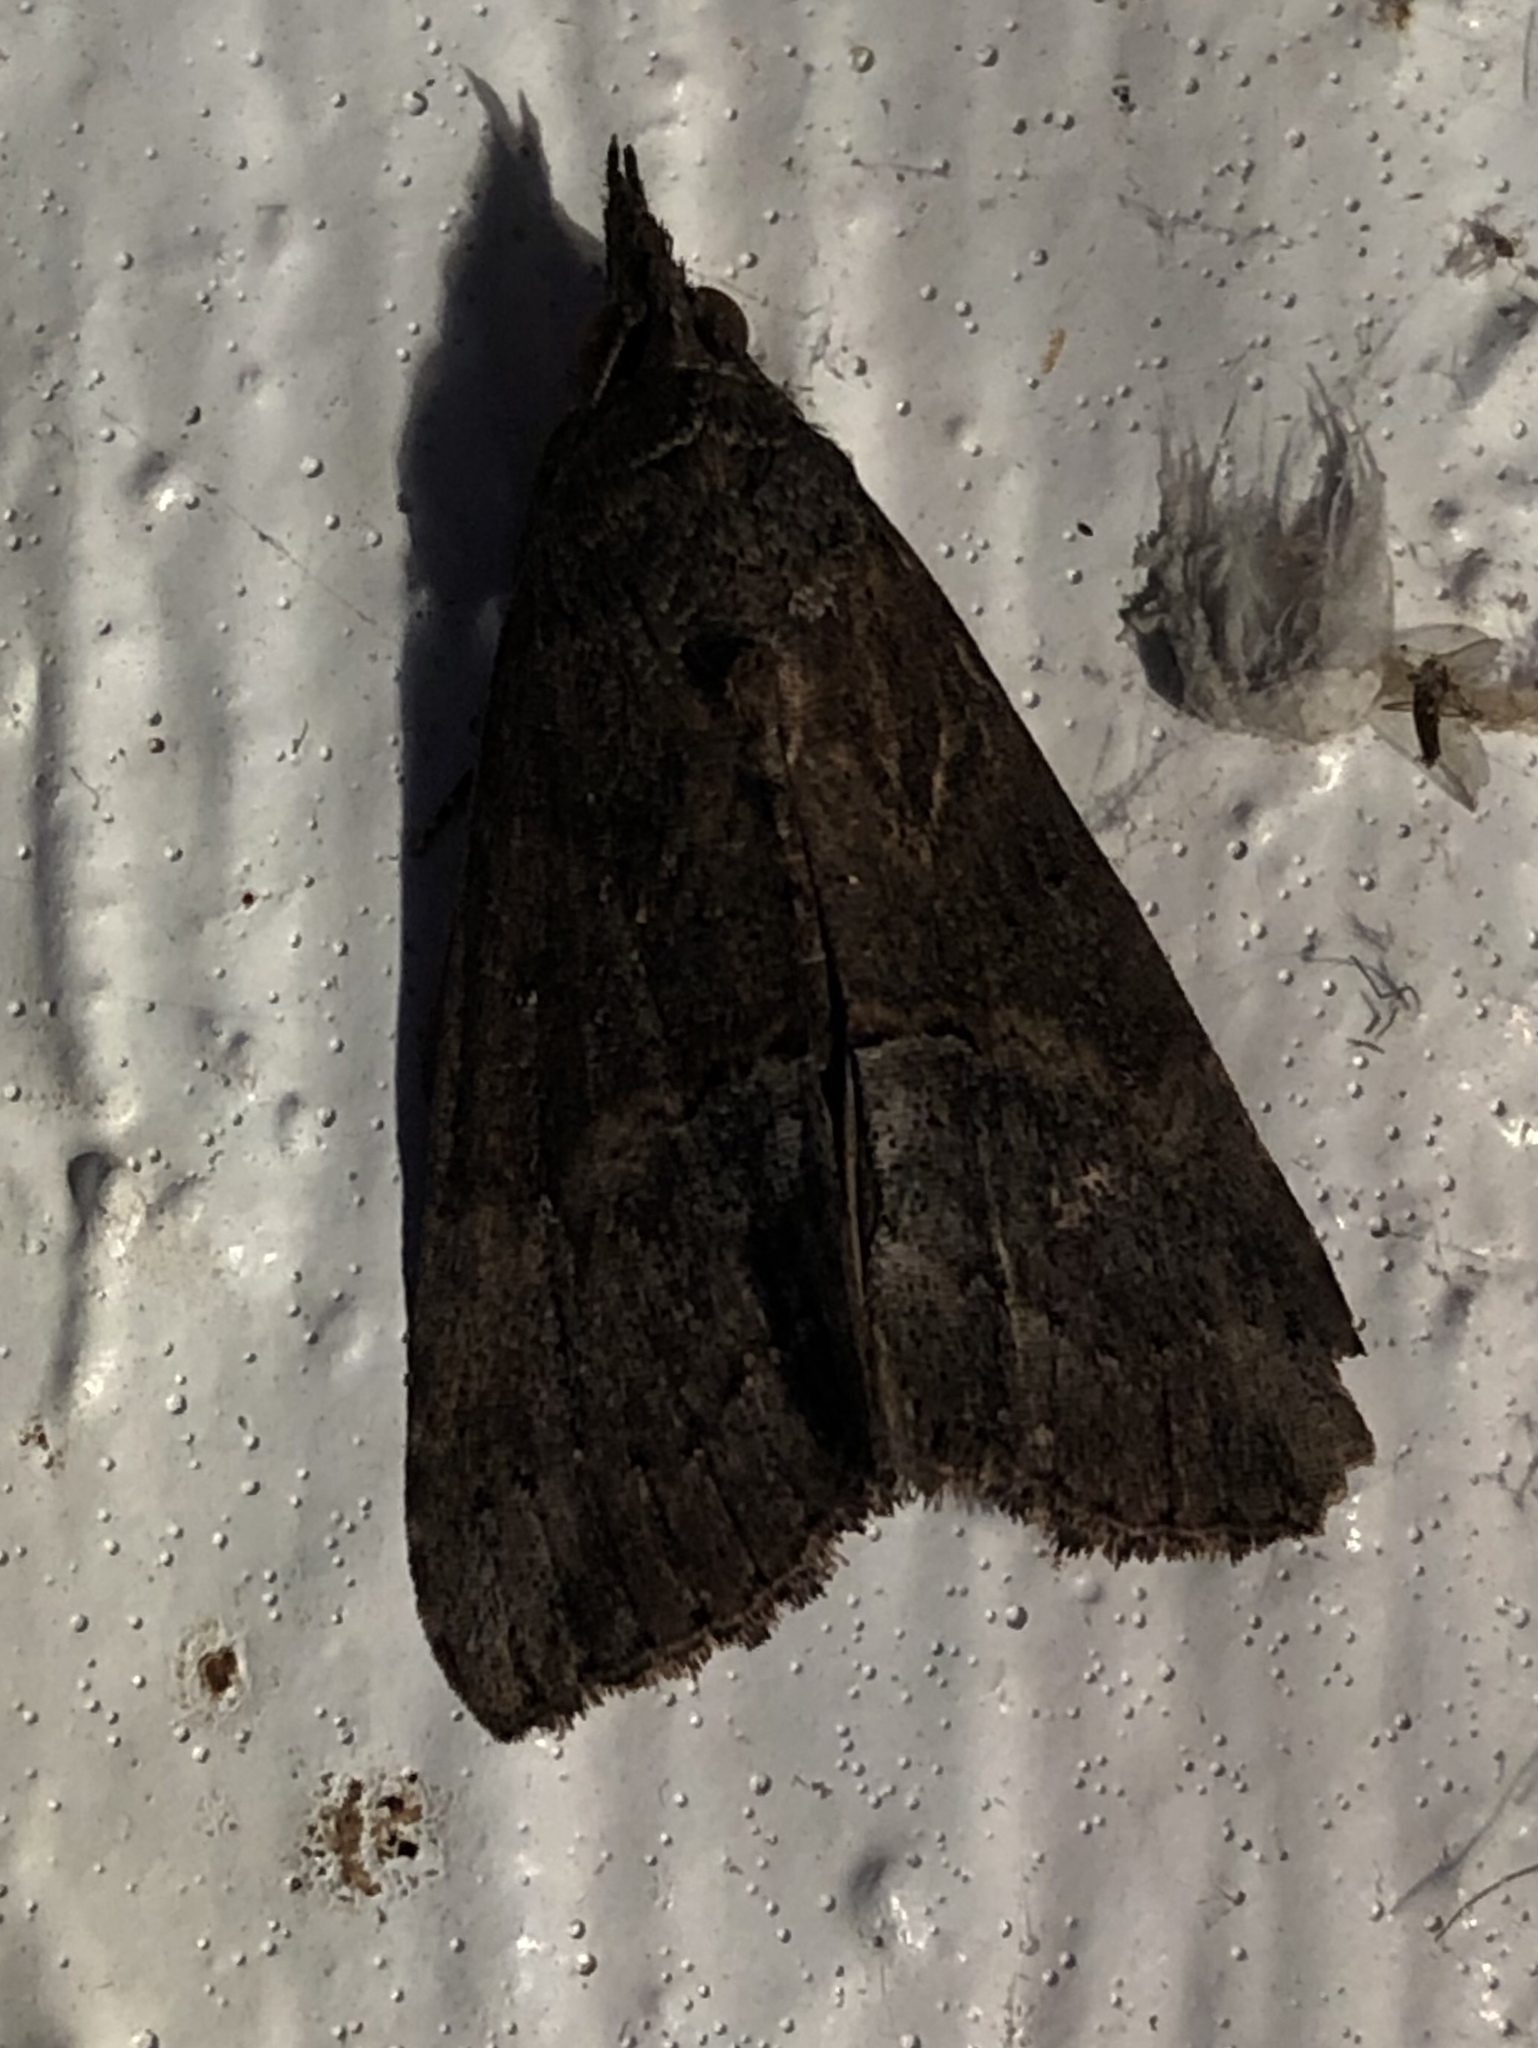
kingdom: Animalia
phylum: Arthropoda
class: Insecta
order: Lepidoptera
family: Erebidae
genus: Hypena
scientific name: Hypena scabra
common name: Green cloverworm
